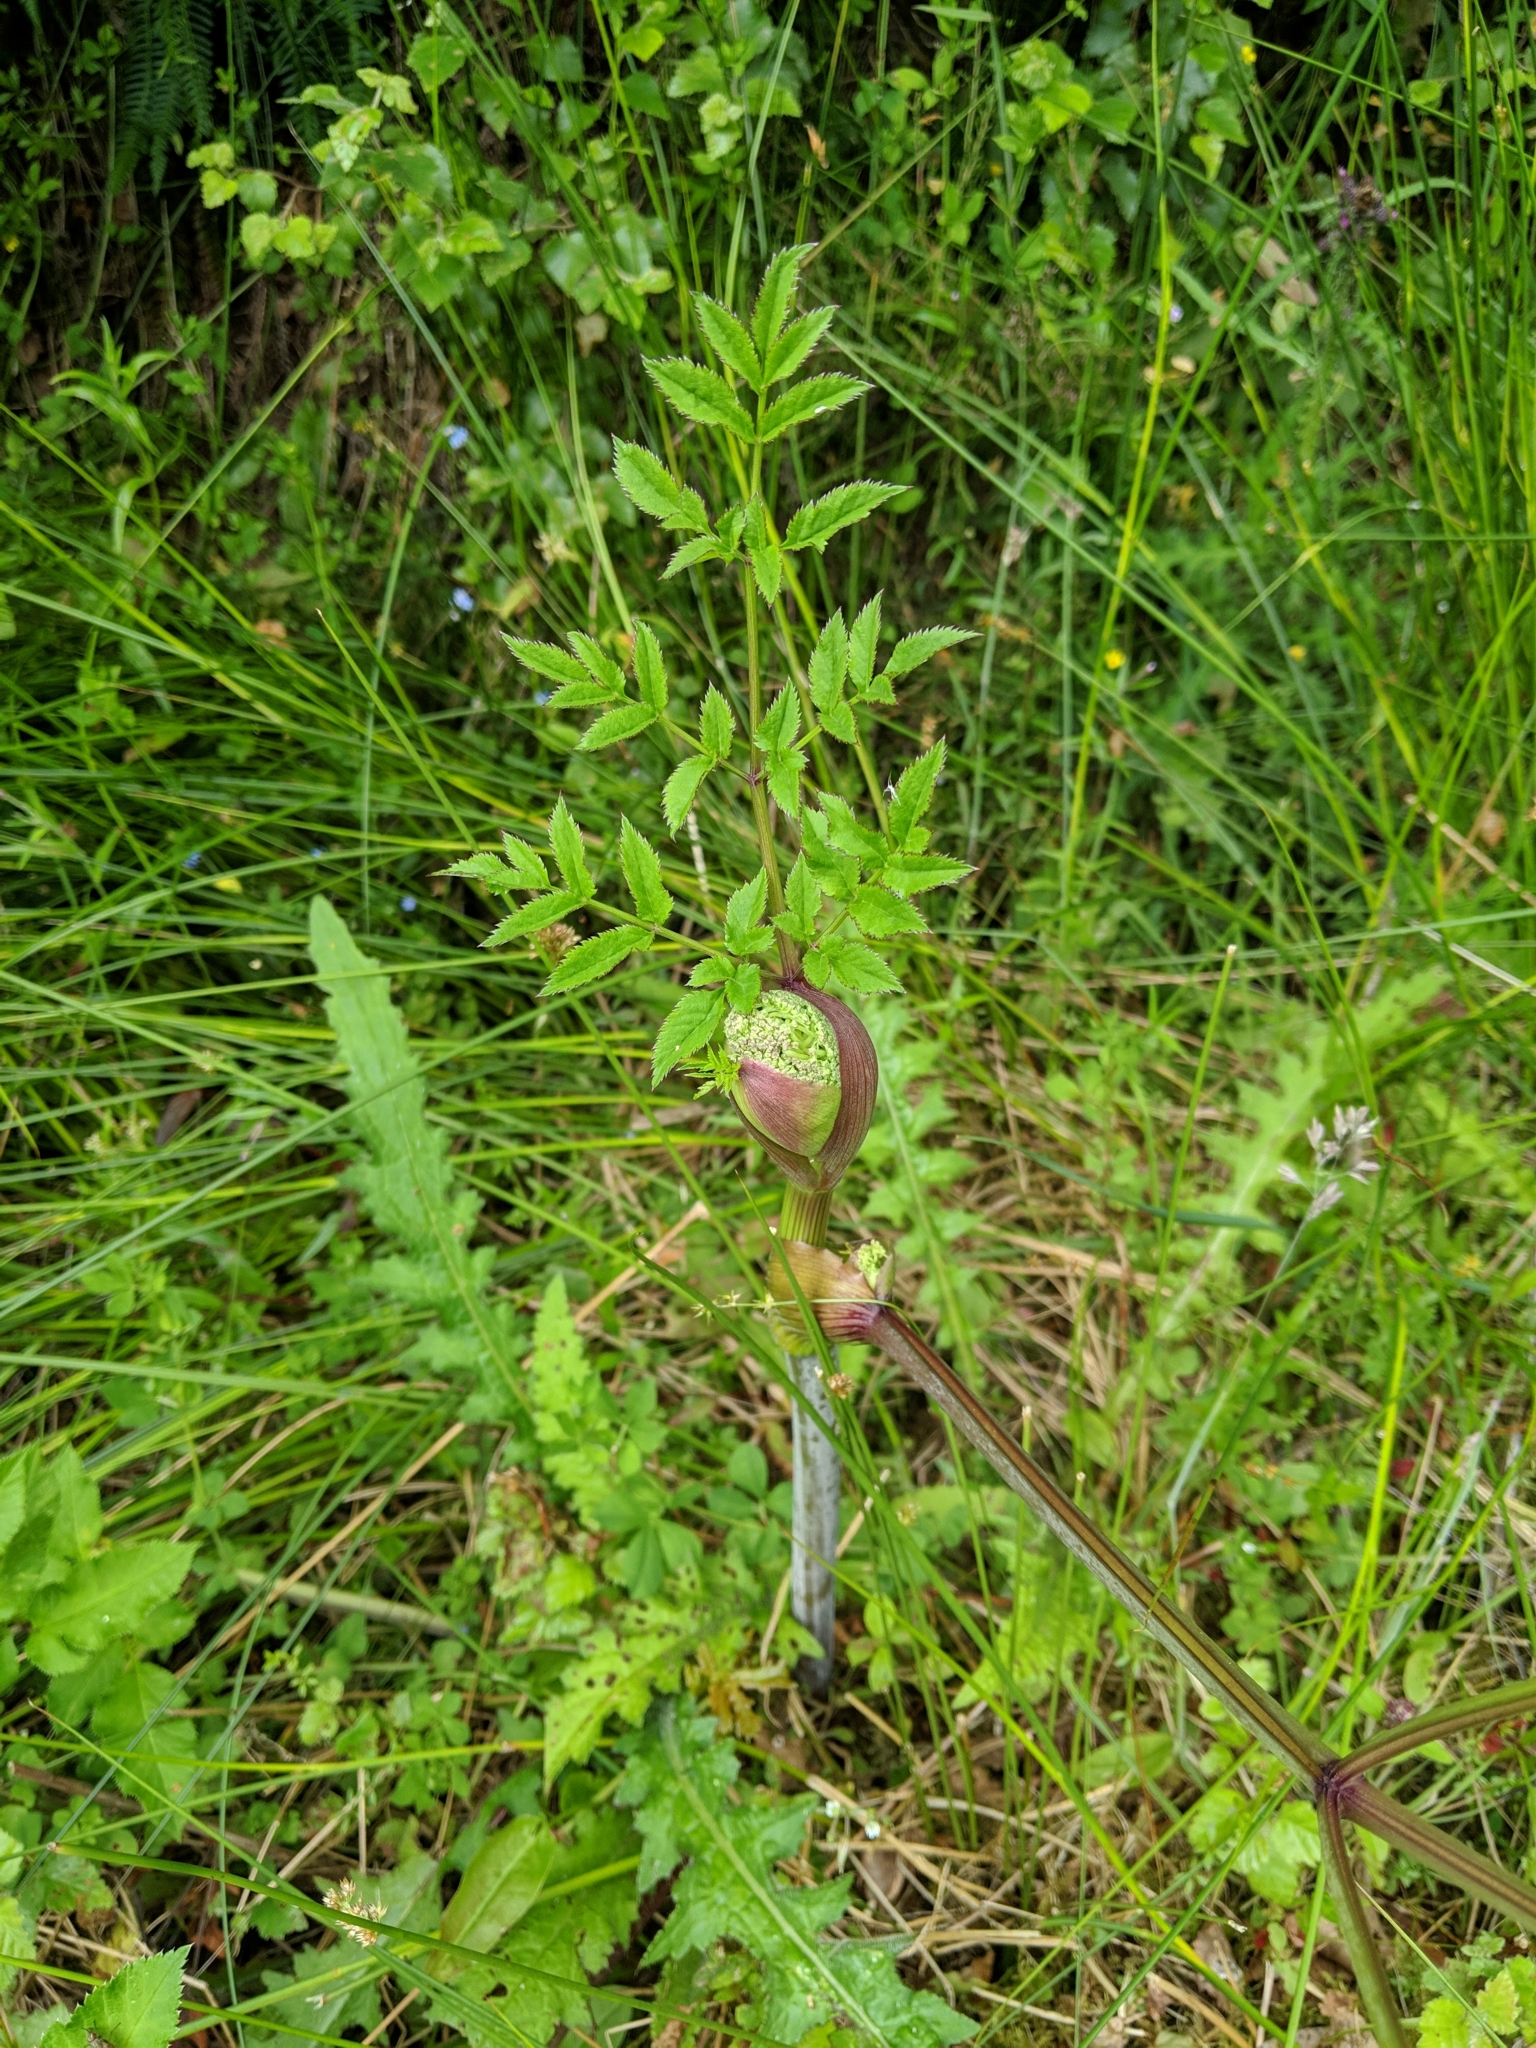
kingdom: Plantae
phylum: Tracheophyta
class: Magnoliopsida
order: Apiales
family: Apiaceae
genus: Angelica
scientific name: Angelica sylvestris
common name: Wild angelica
